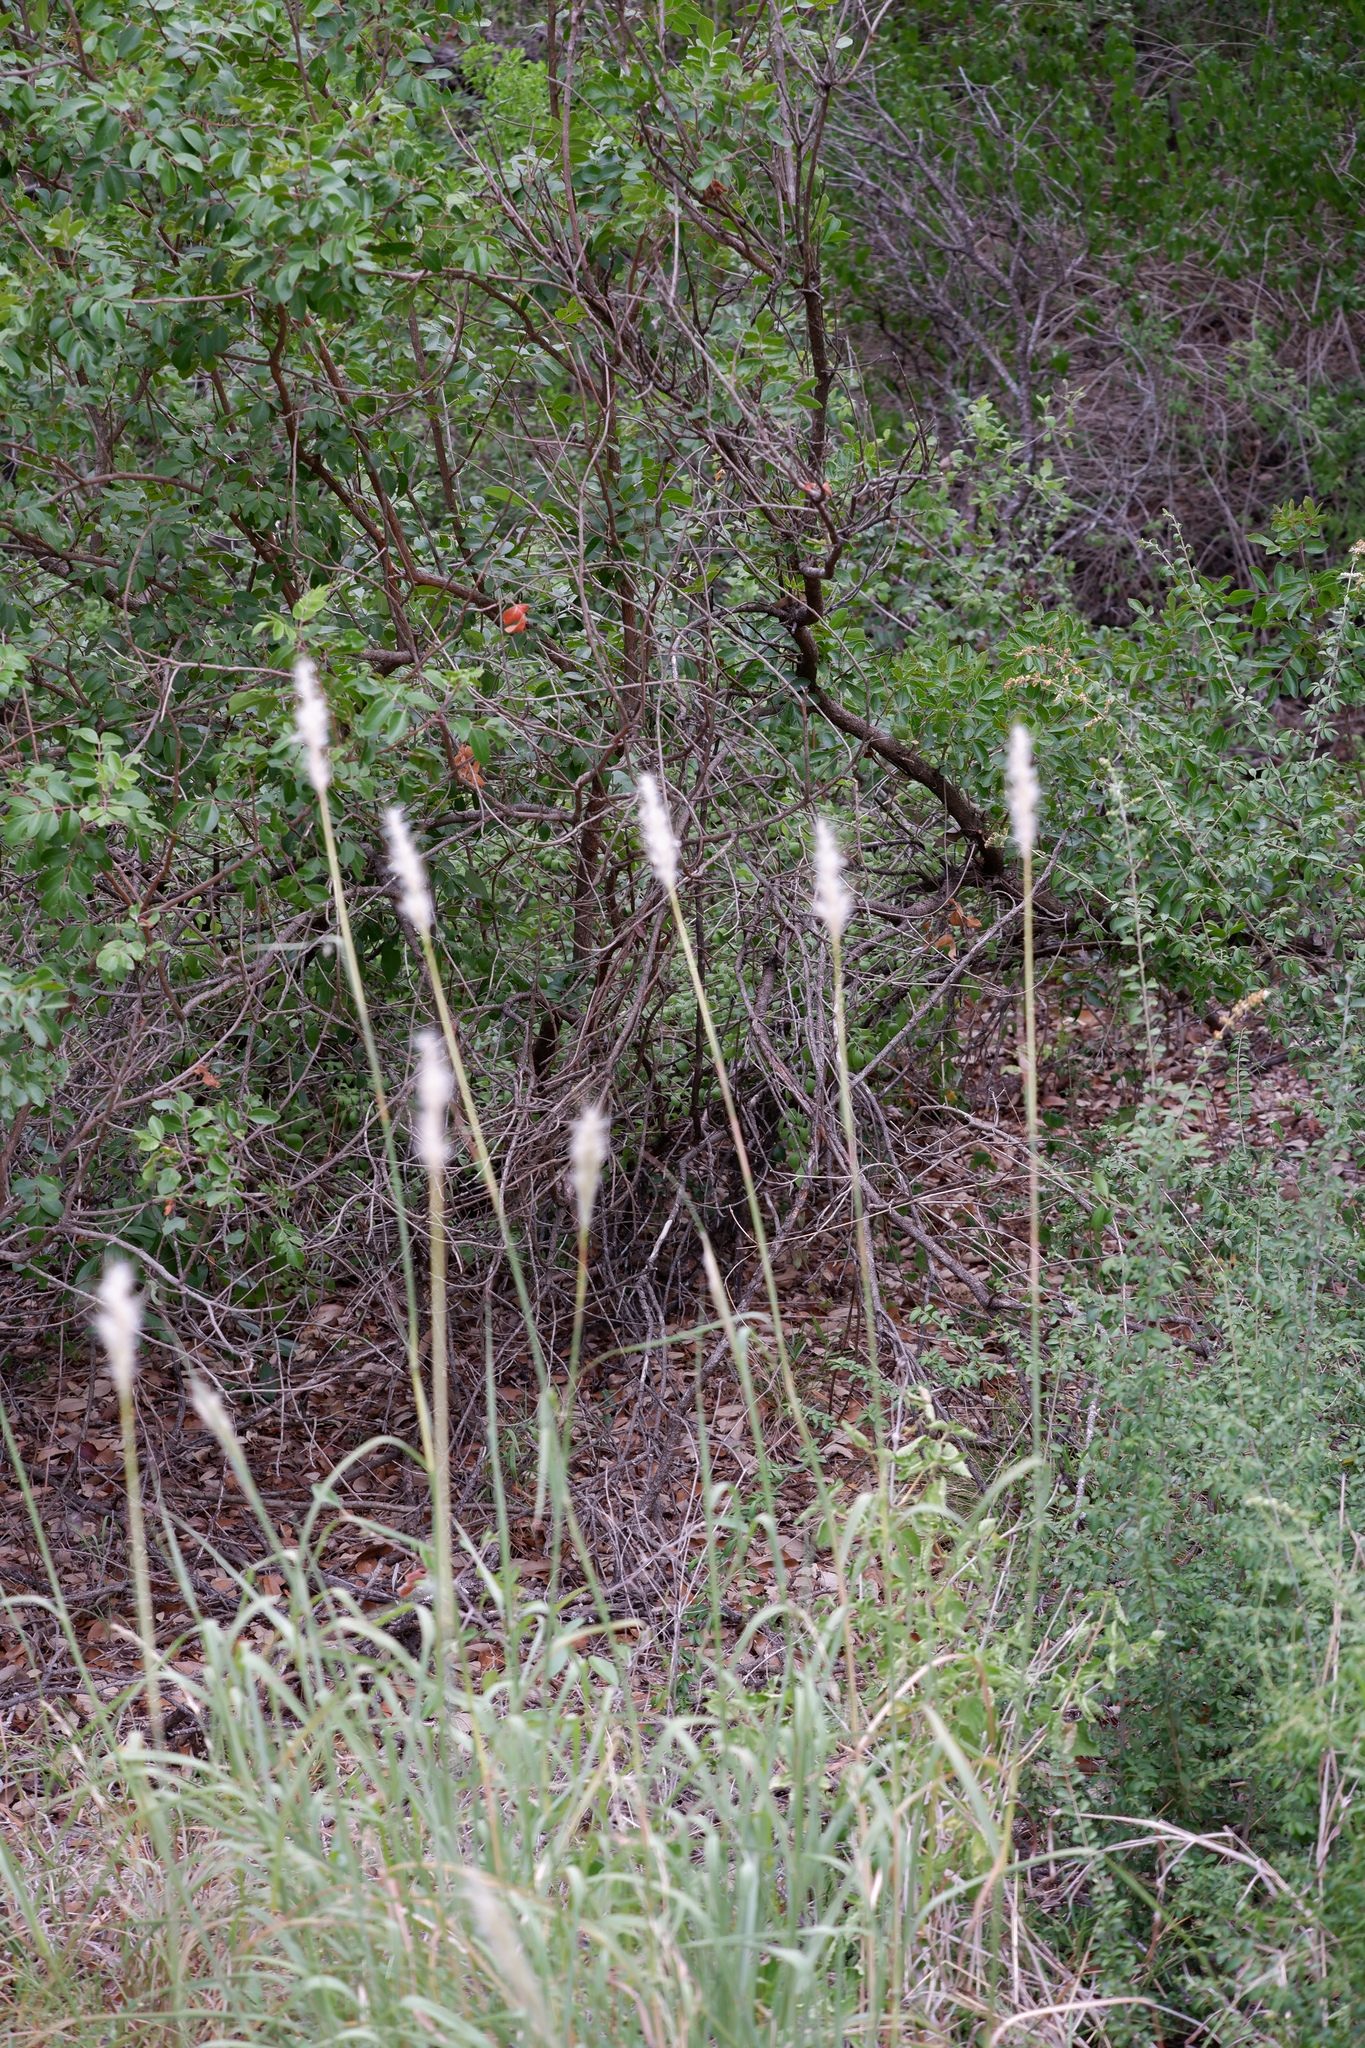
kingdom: Plantae
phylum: Tracheophyta
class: Liliopsida
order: Poales
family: Poaceae
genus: Bothriochloa
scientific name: Bothriochloa torreyana
